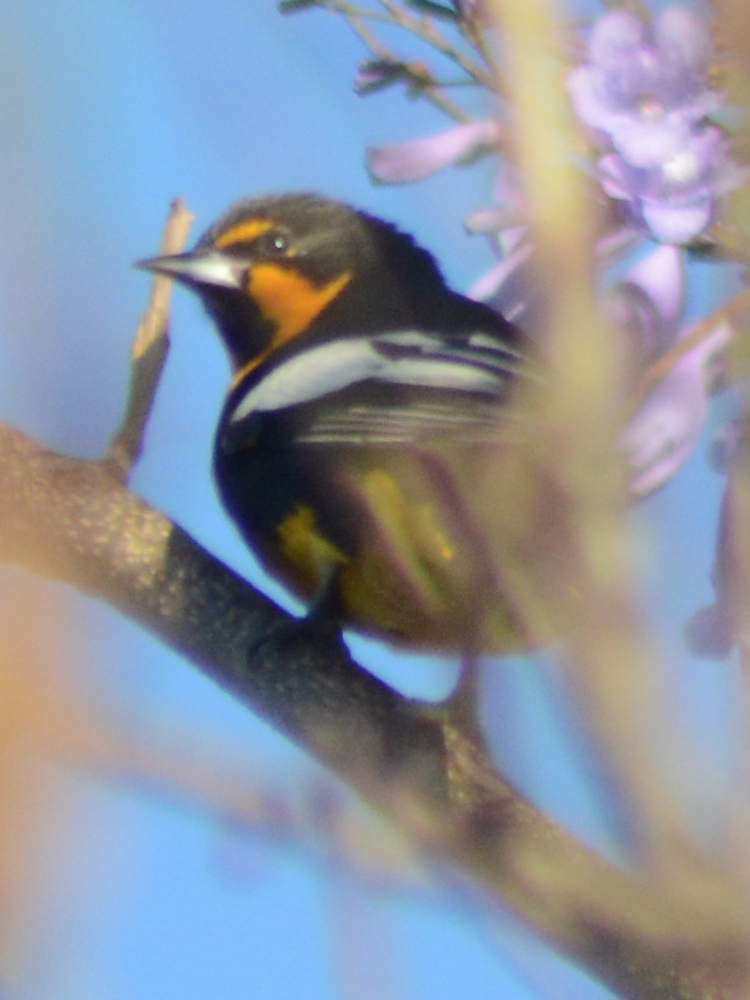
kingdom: Animalia
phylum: Chordata
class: Aves
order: Passeriformes
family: Icteridae
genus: Icterus
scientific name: Icterus abeillei
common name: Black-backed oriole
